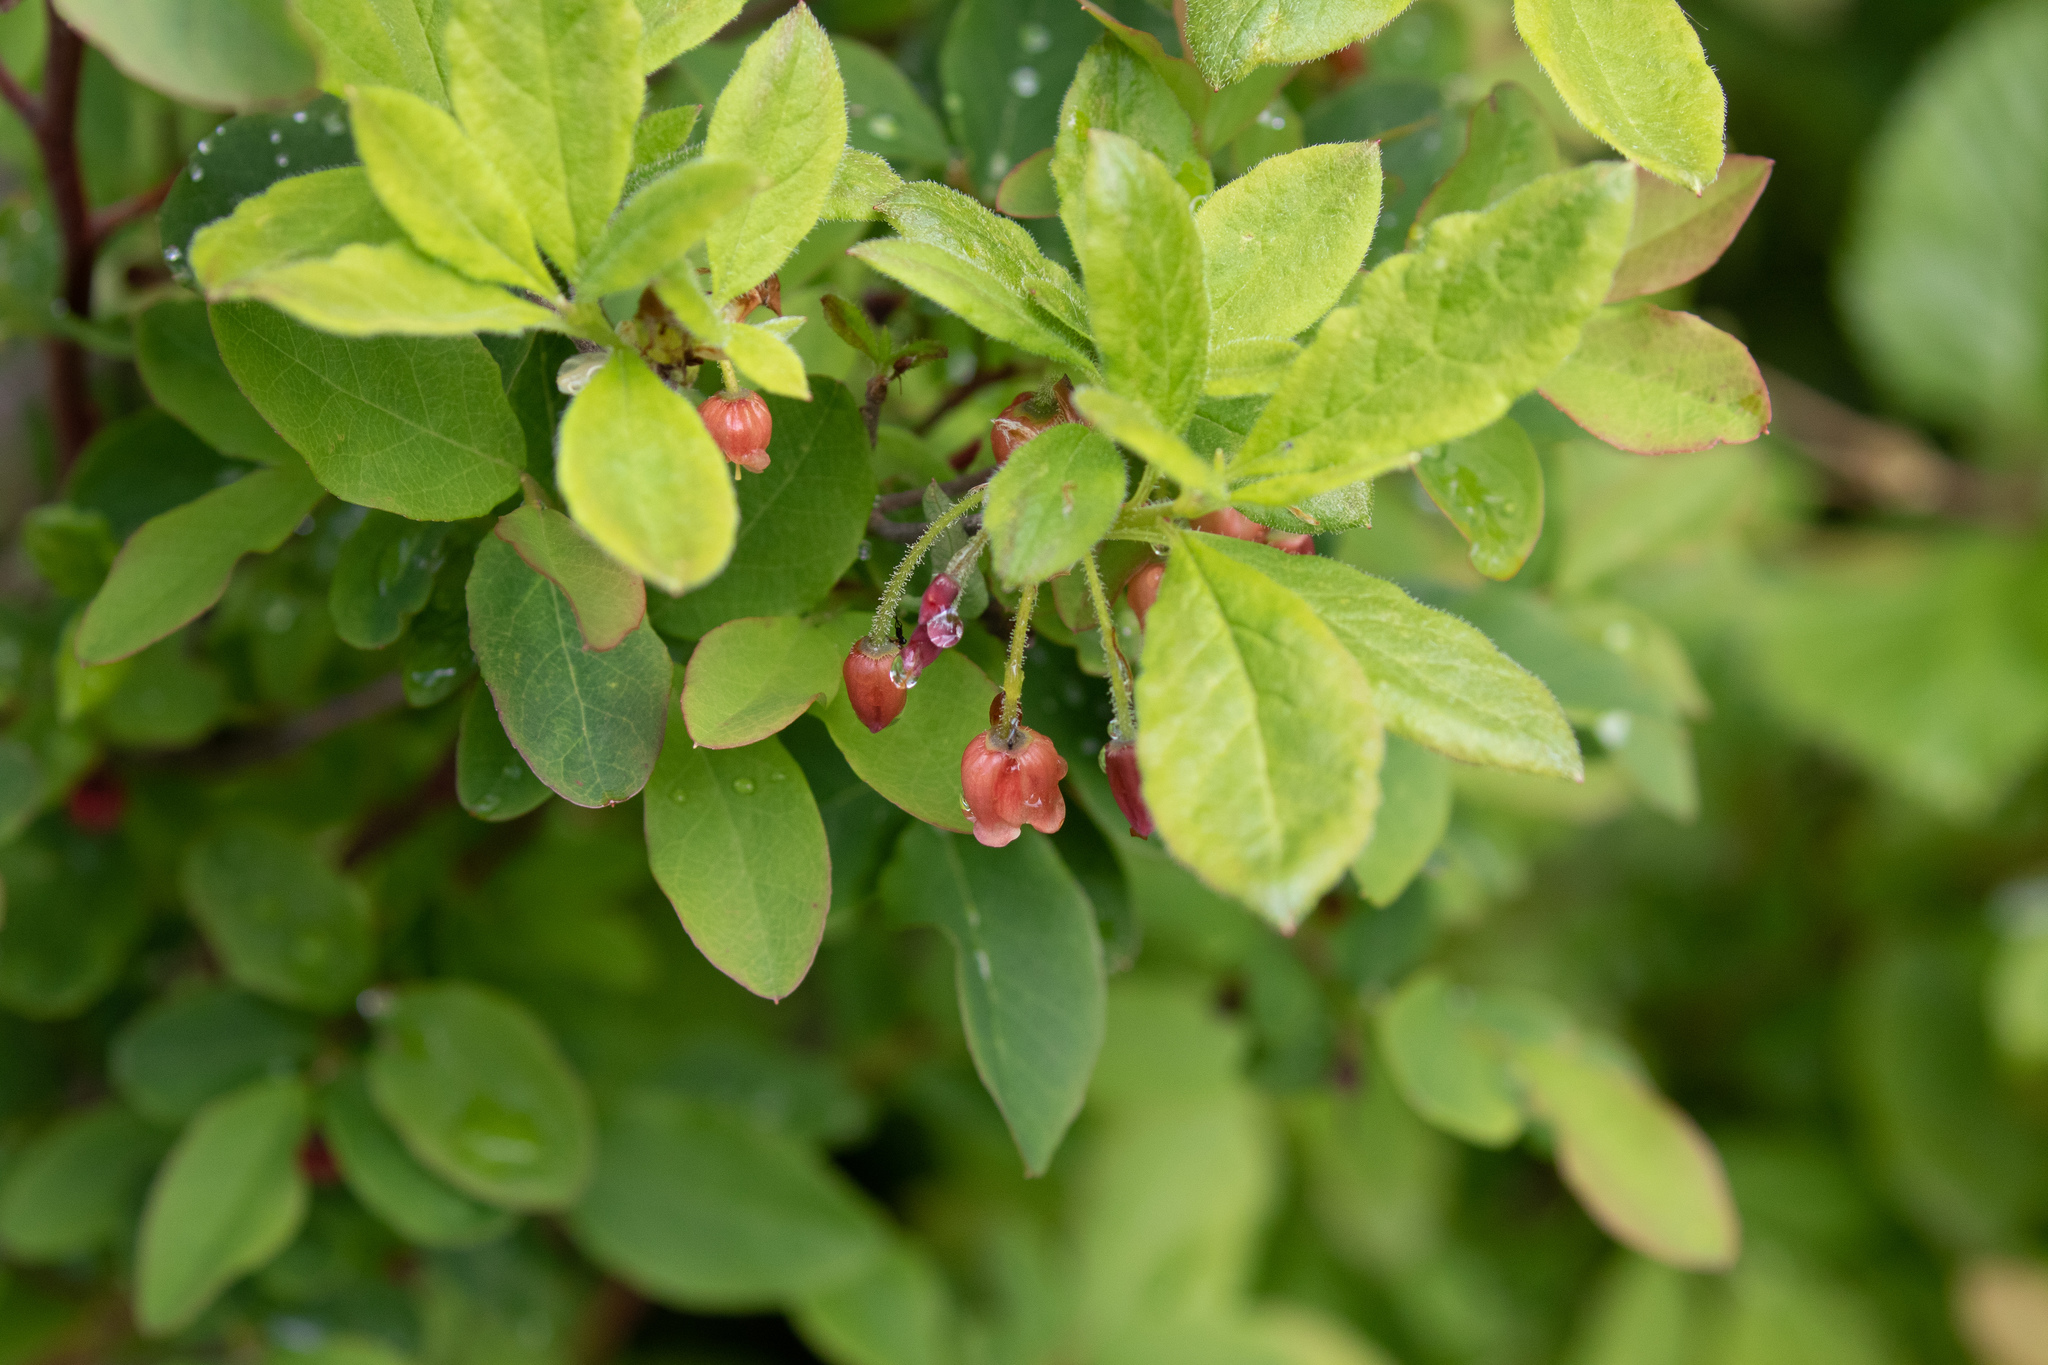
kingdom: Plantae
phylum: Tracheophyta
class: Magnoliopsida
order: Ericales
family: Ericaceae
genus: Rhododendron
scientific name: Rhododendron menziesii
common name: Pacific menziesia
